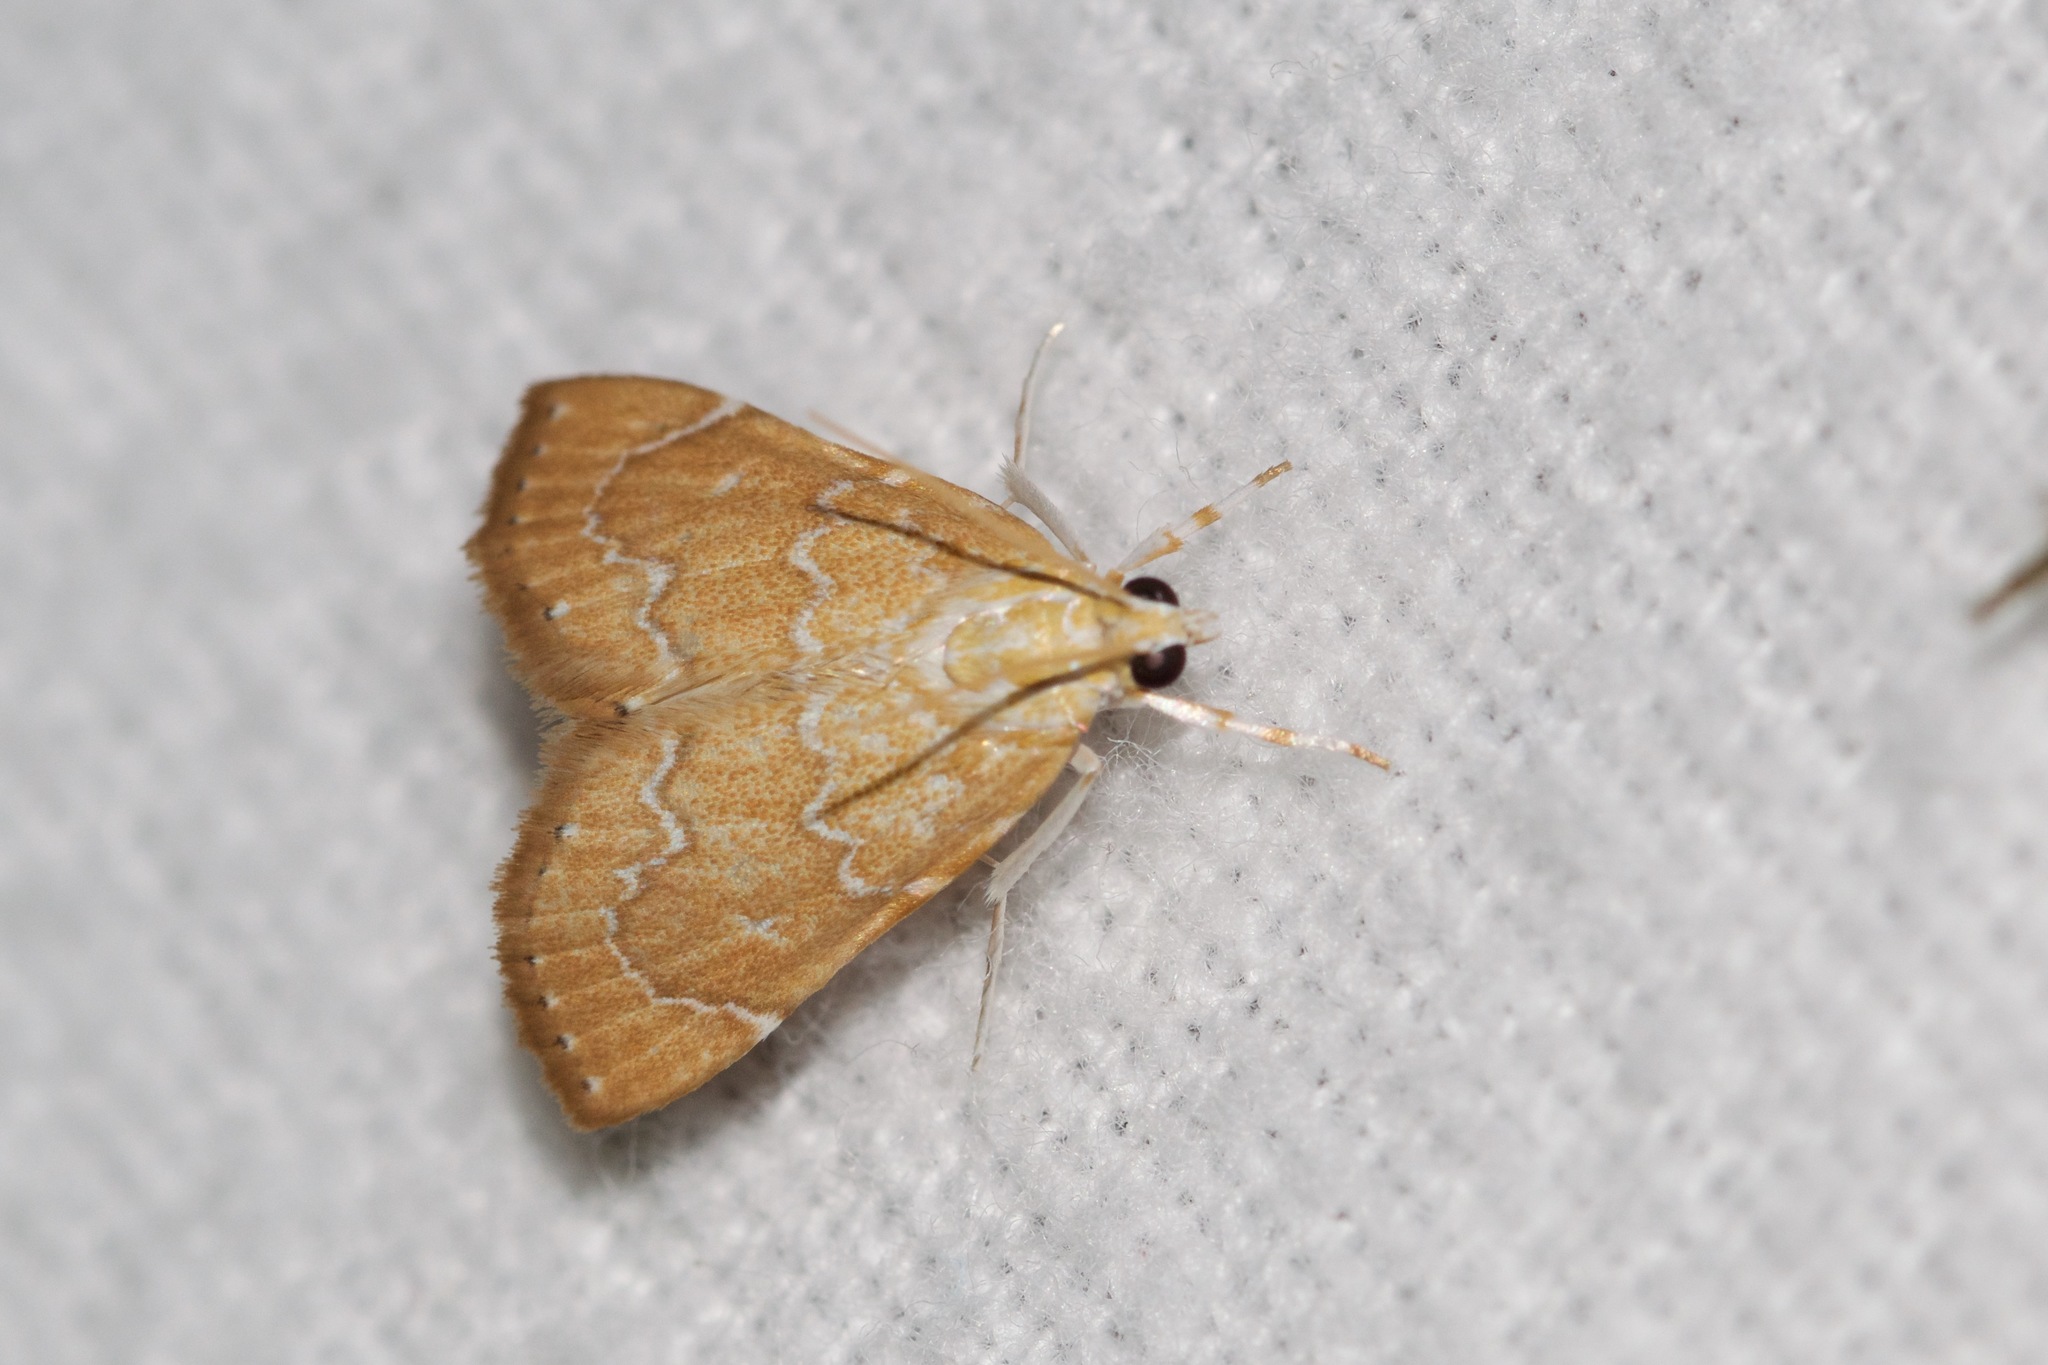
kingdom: Animalia
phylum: Arthropoda
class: Insecta
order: Lepidoptera
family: Crambidae
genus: Glaphyria
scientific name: Glaphyria sesquistrialis
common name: White-roped glaphyria
